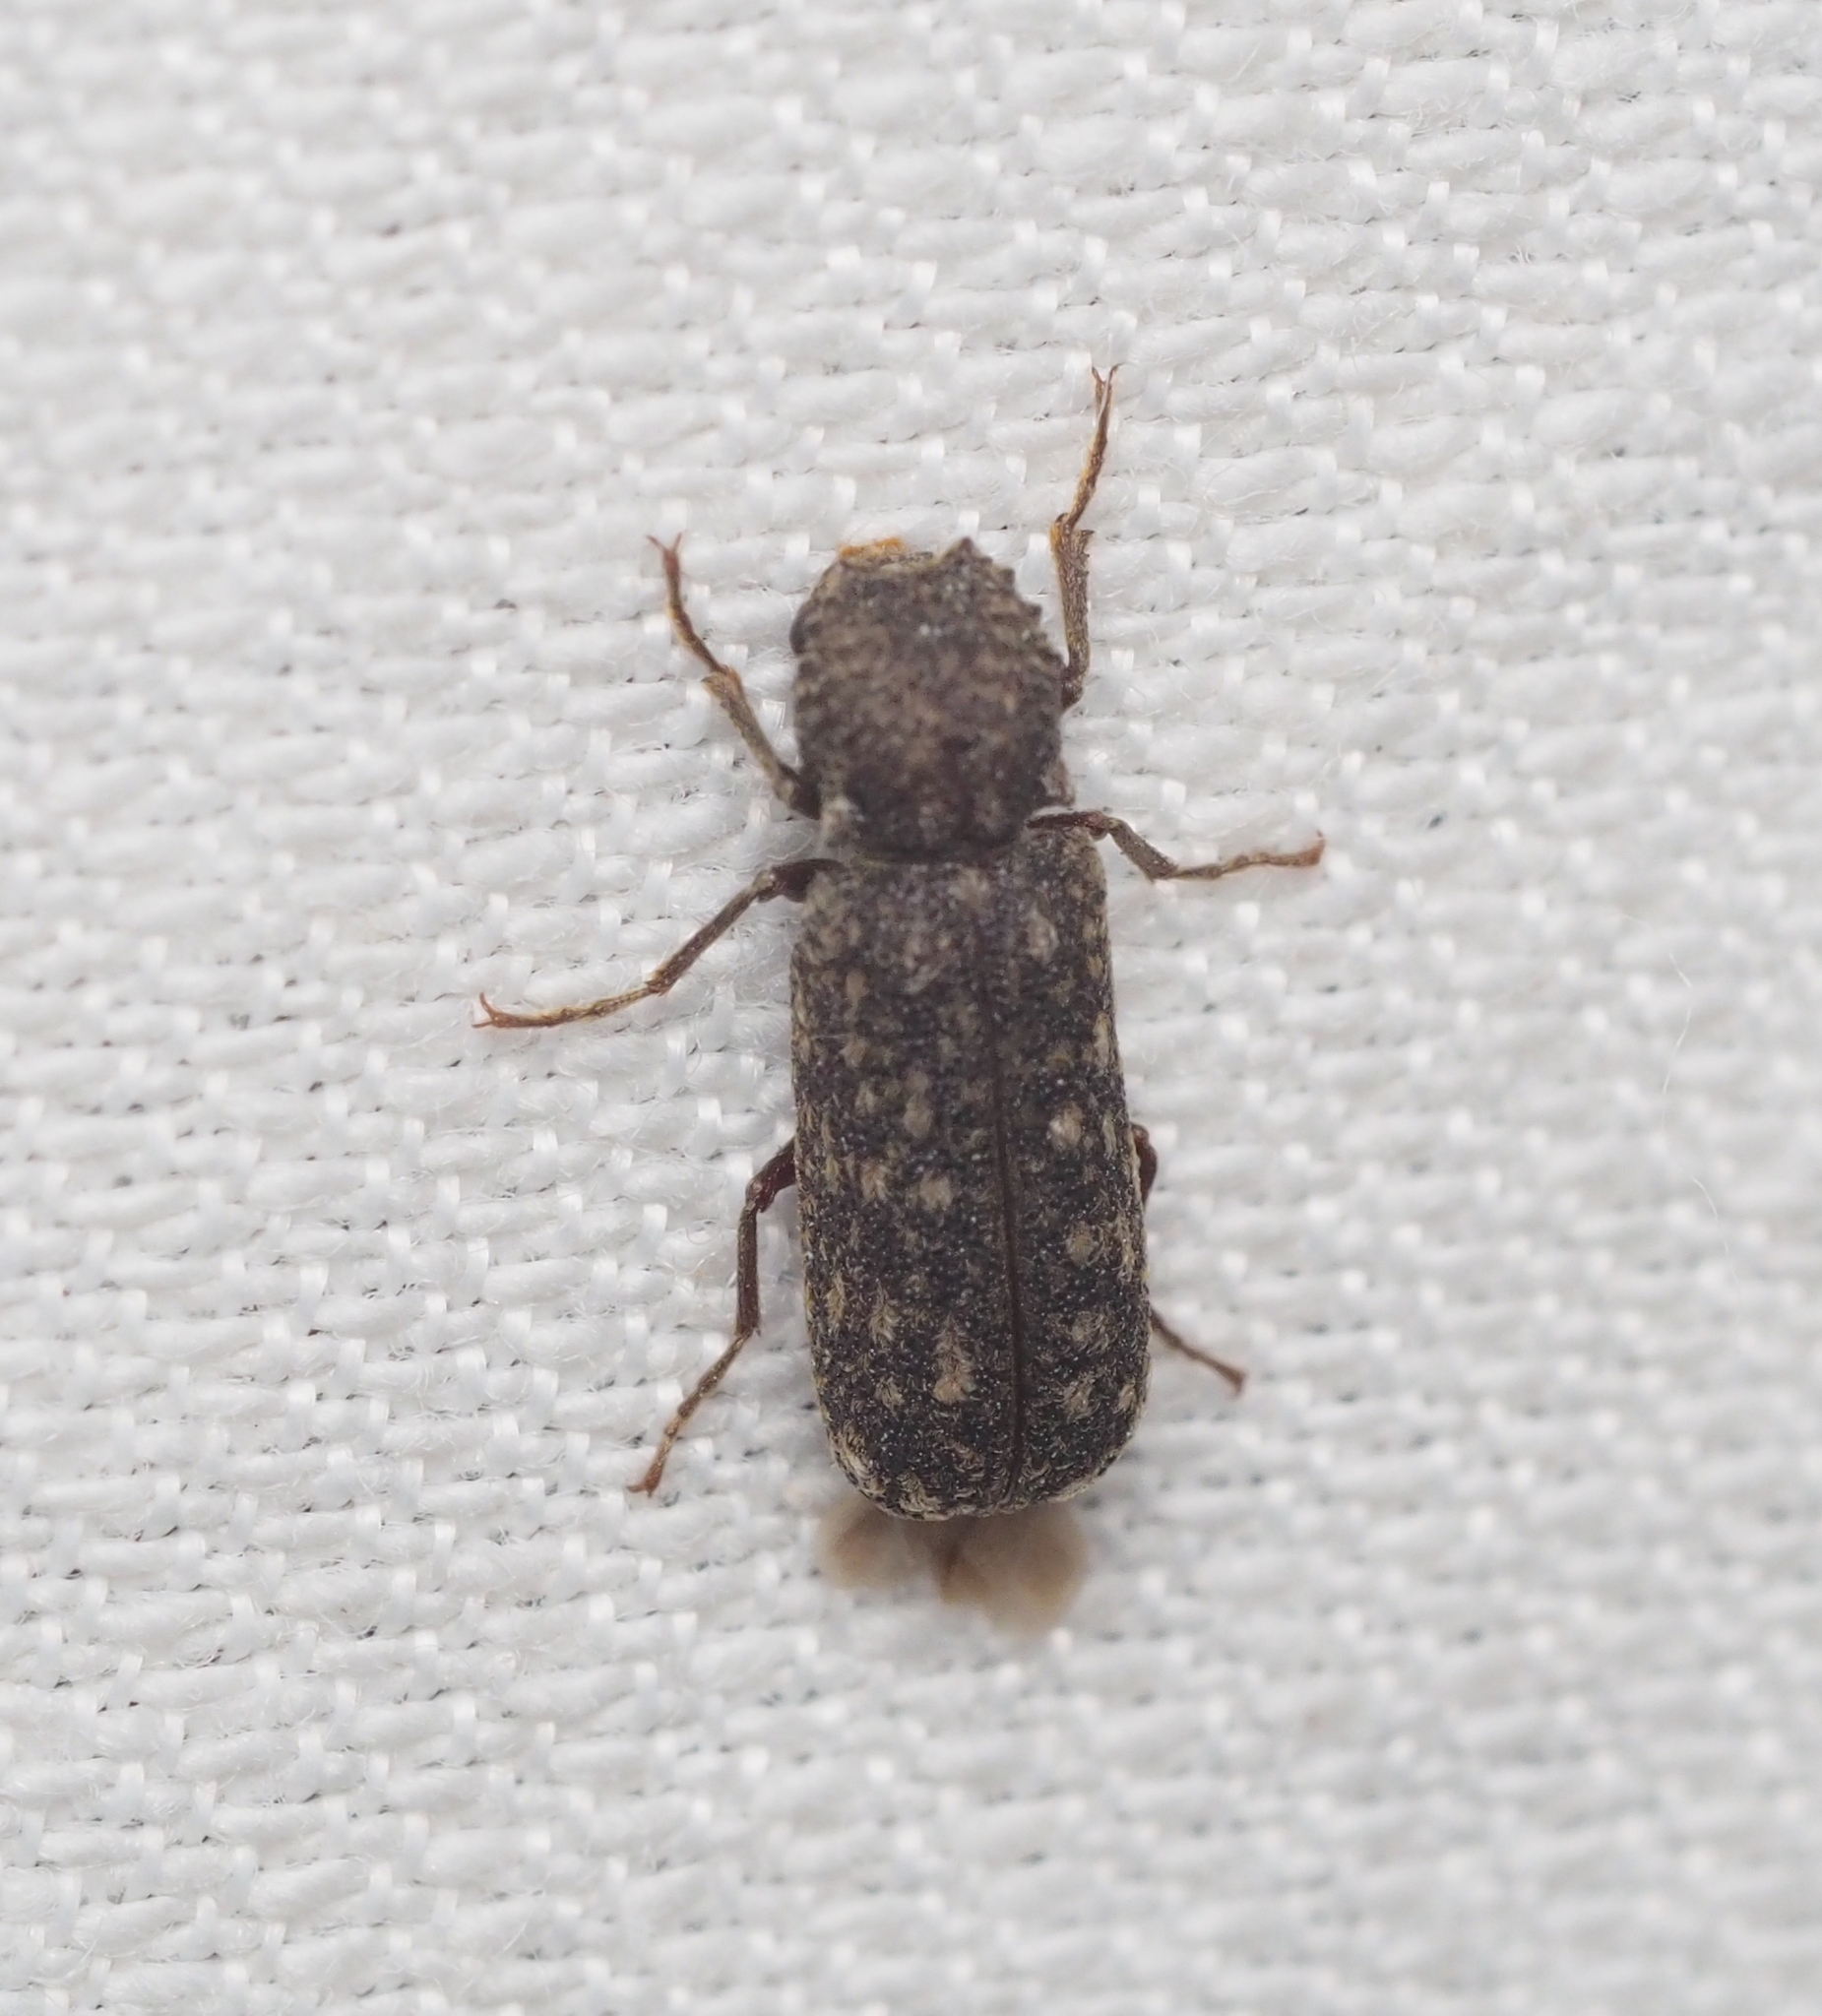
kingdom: Animalia
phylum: Arthropoda
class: Insecta
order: Coleoptera
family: Bostrichidae
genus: Lichenophanes
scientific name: Lichenophanes varius
